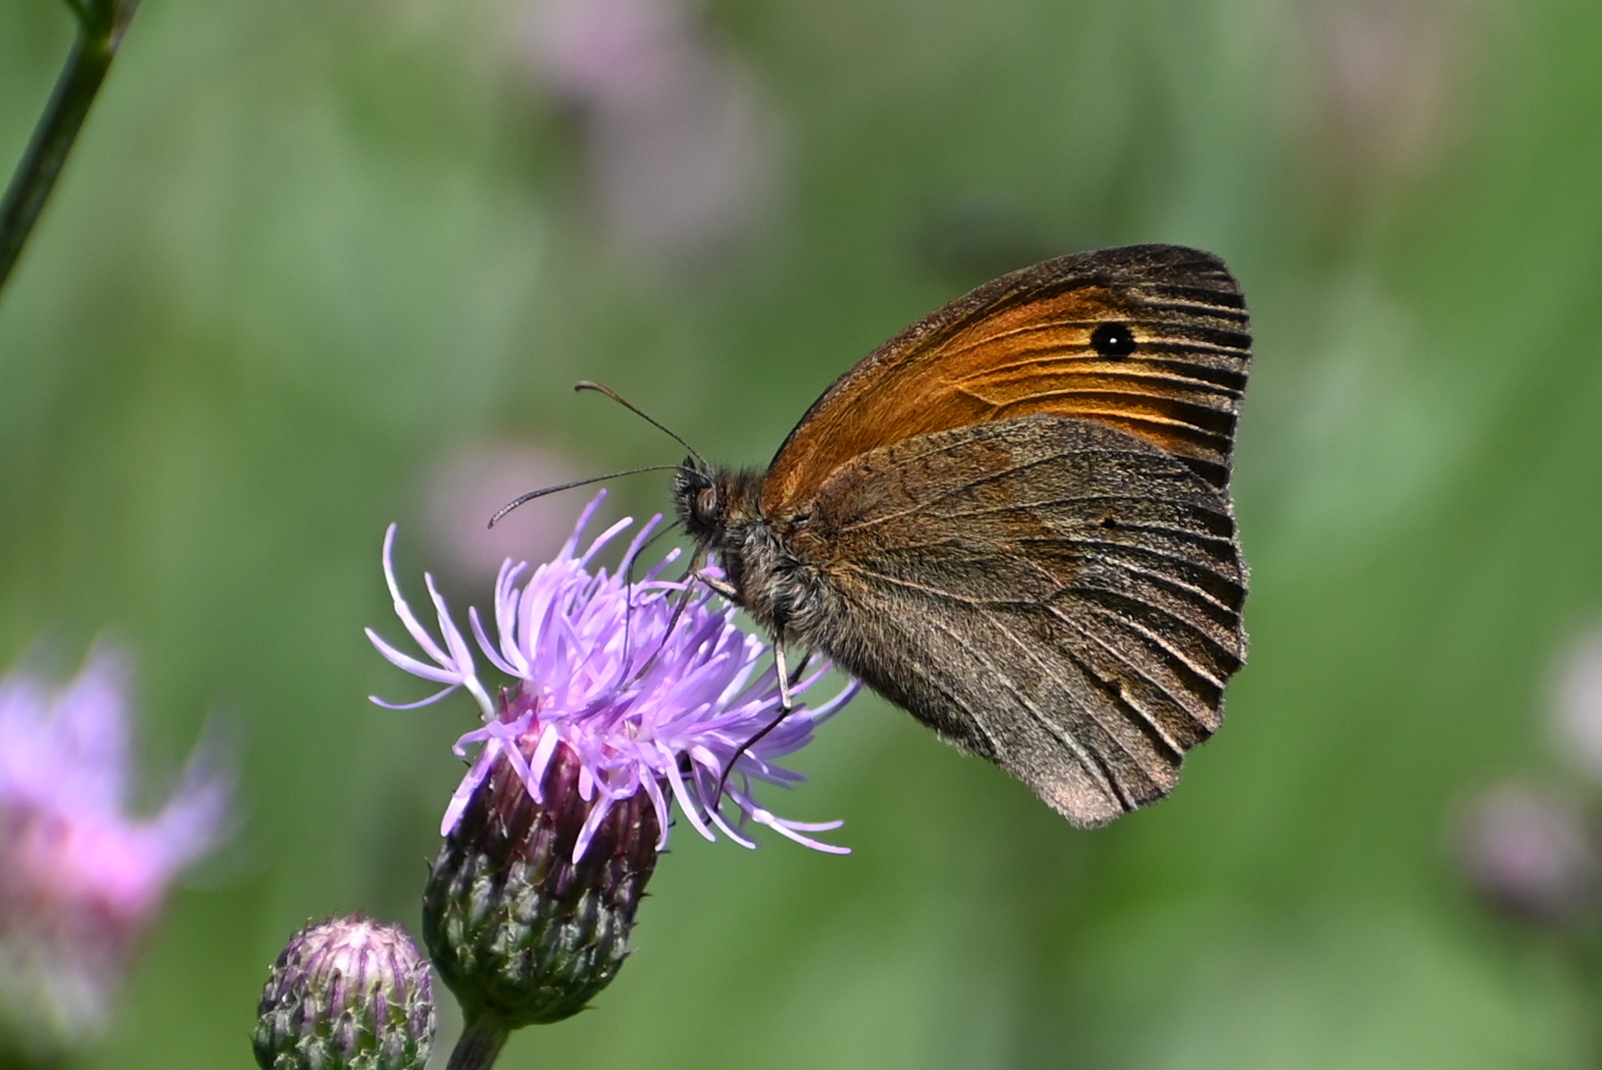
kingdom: Animalia
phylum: Arthropoda
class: Insecta
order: Lepidoptera
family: Nymphalidae
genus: Maniola
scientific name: Maniola jurtina
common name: Meadow brown
